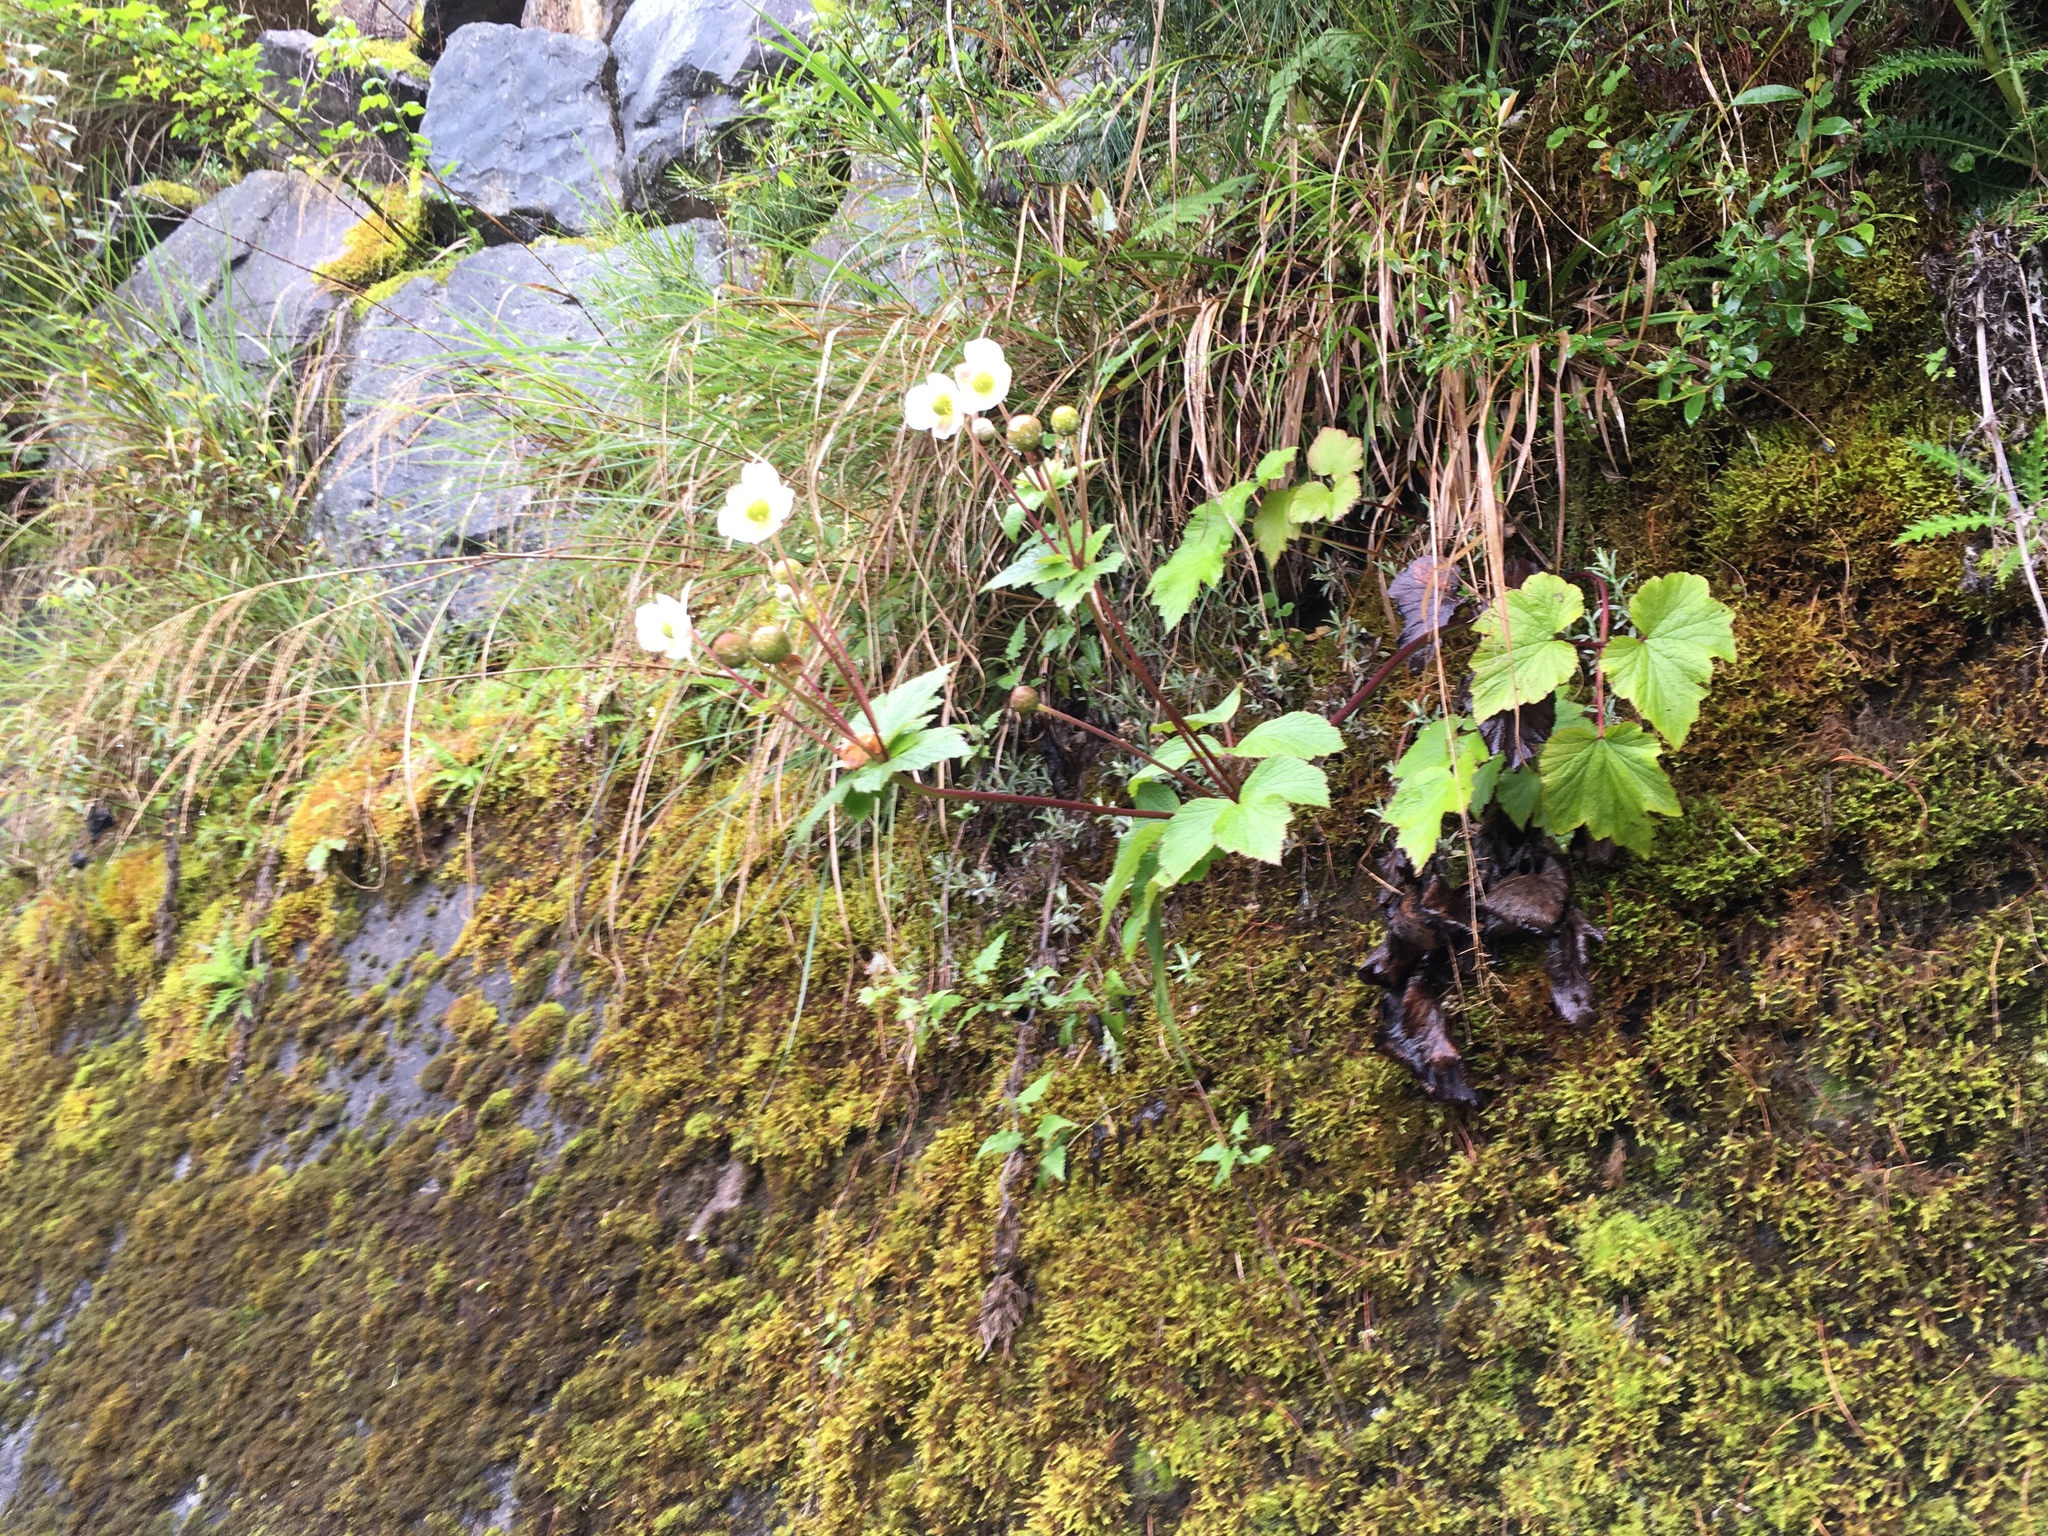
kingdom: Plantae
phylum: Tracheophyta
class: Magnoliopsida
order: Ranunculales
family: Ranunculaceae
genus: Eriocapitella
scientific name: Eriocapitella vitifolia
